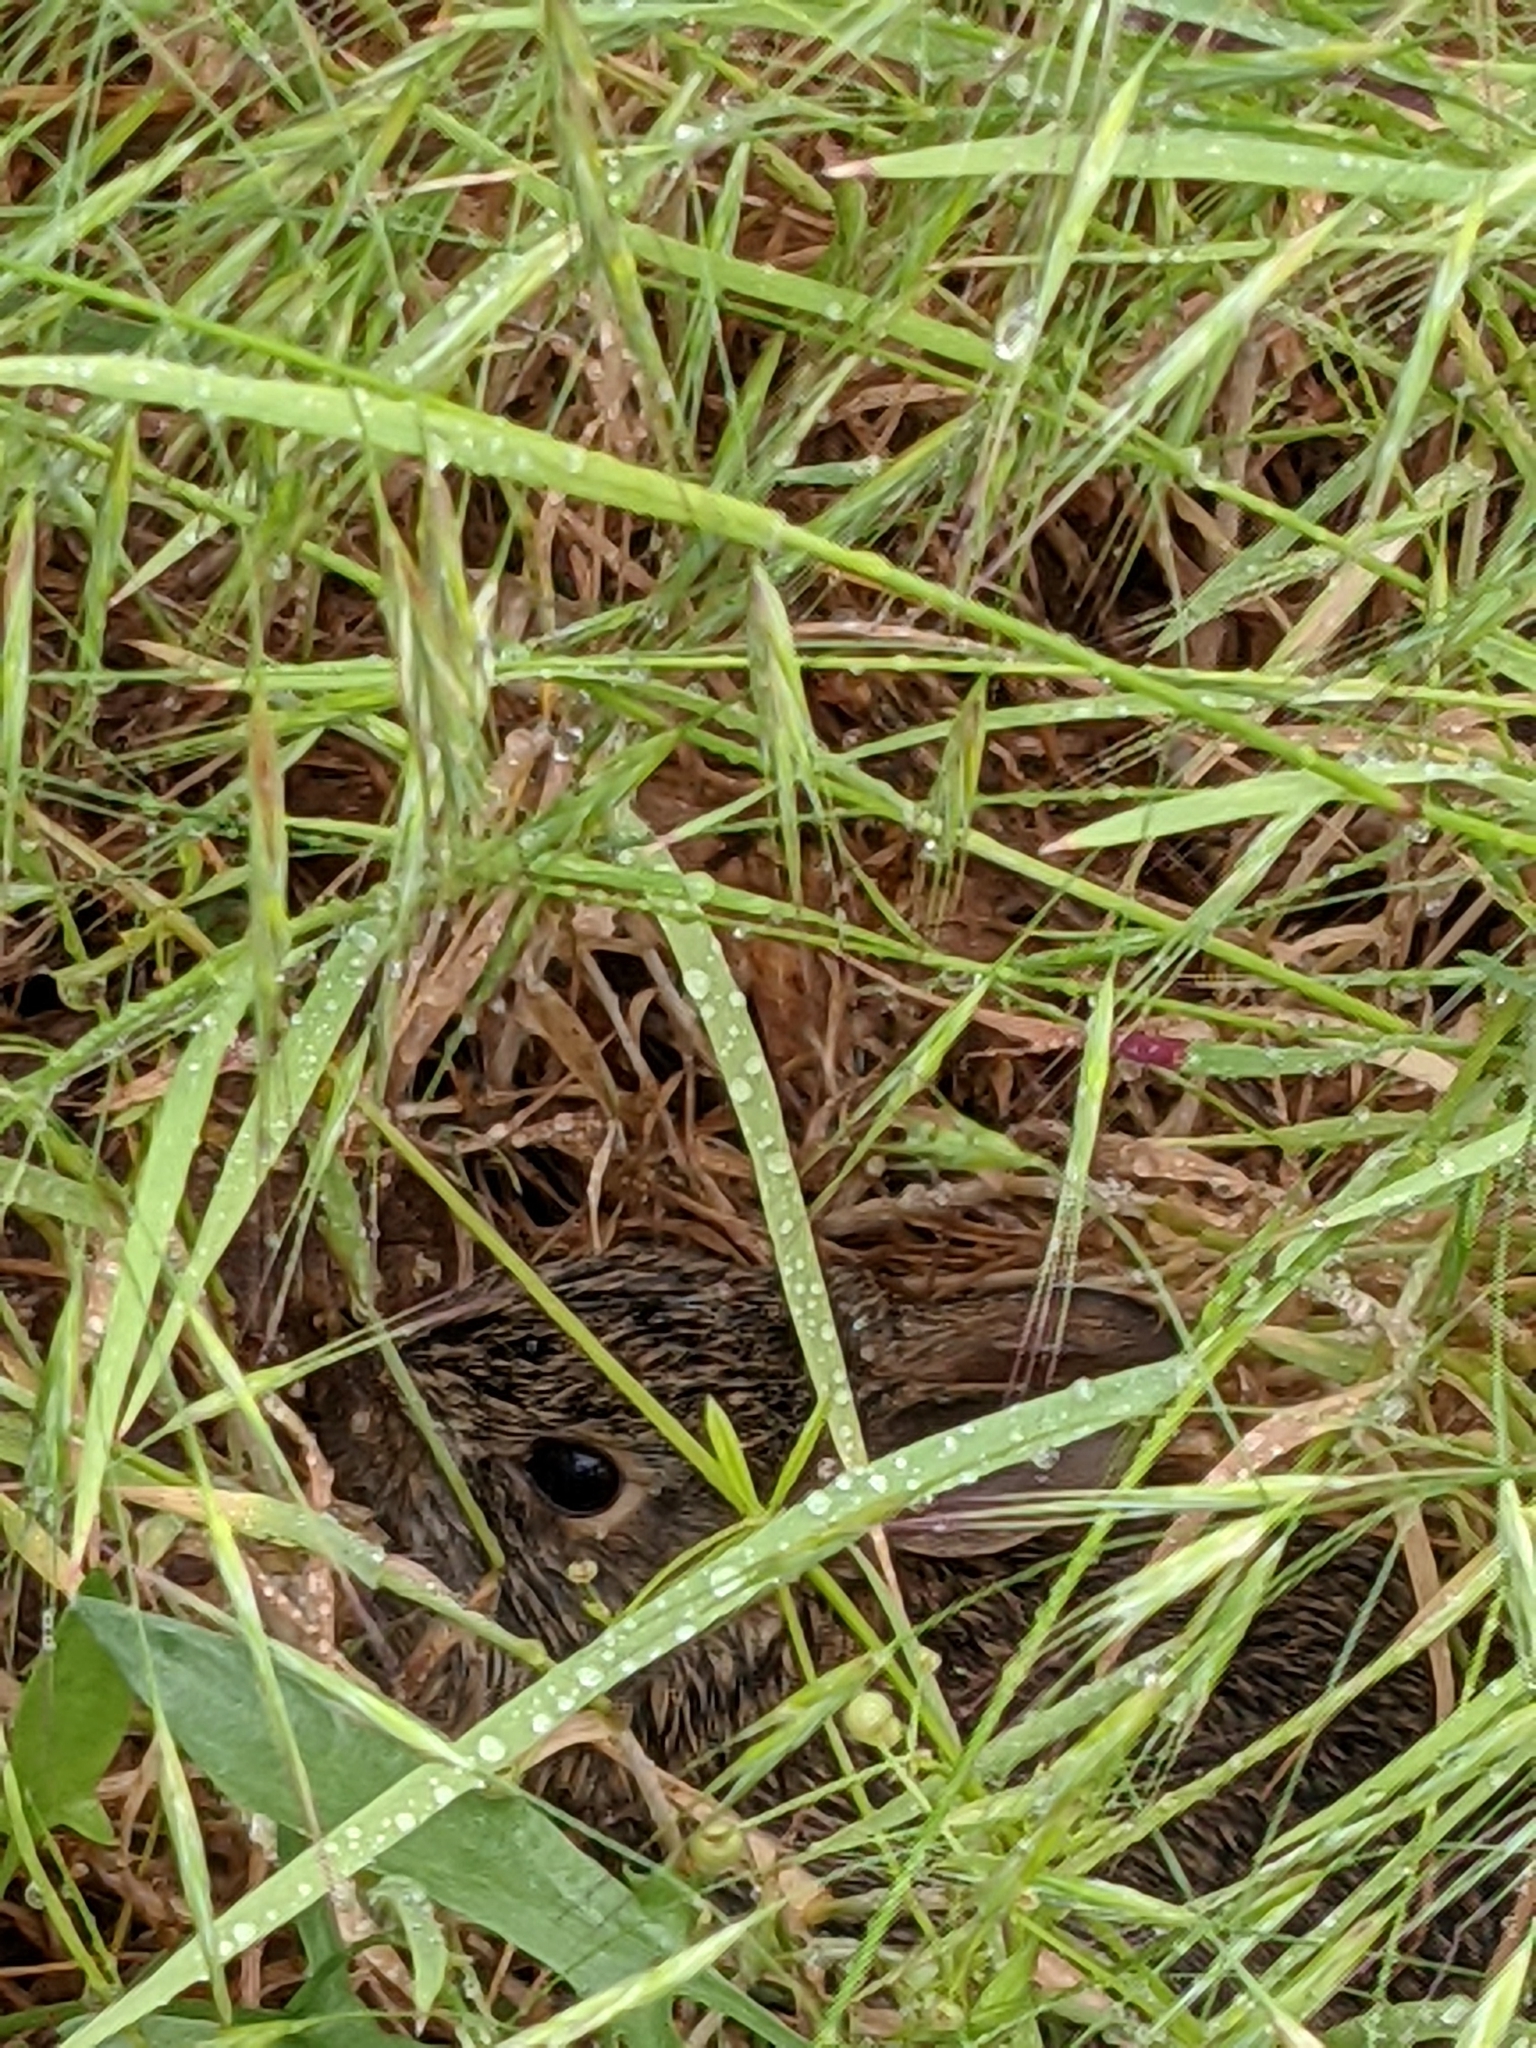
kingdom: Animalia
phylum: Chordata
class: Mammalia
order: Lagomorpha
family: Leporidae
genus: Sylvilagus
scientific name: Sylvilagus floridanus
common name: Eastern cottontail
